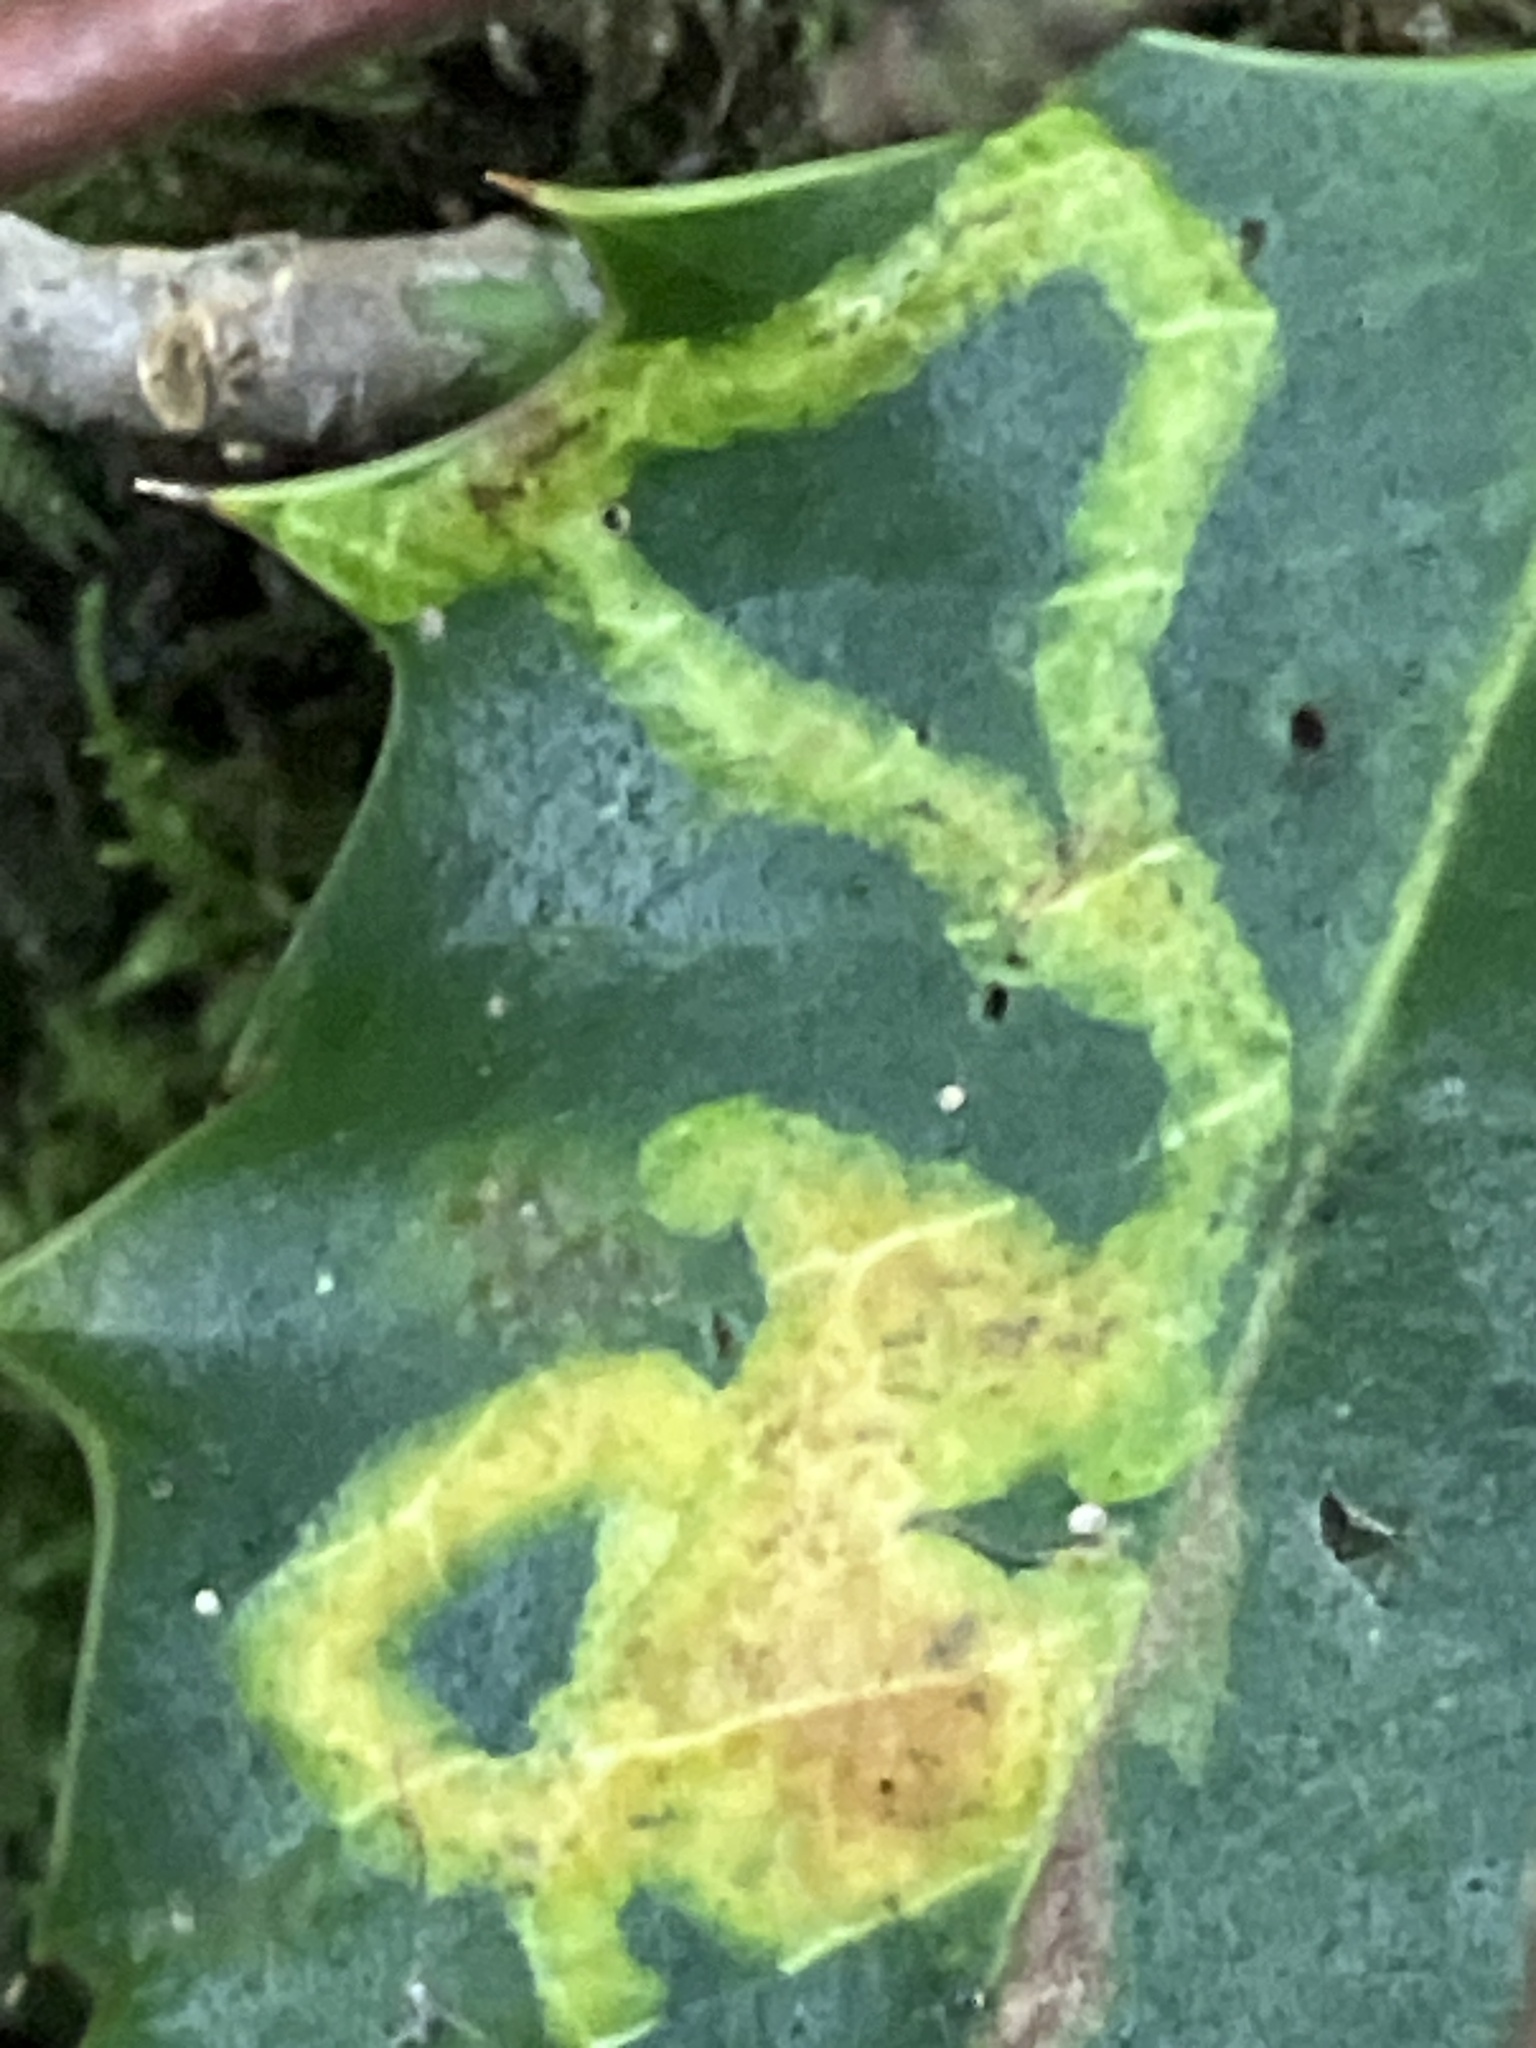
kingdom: Animalia
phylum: Arthropoda
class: Insecta
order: Diptera
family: Agromyzidae
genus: Phytomyza
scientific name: Phytomyza ilicis
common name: Holly leafminer
